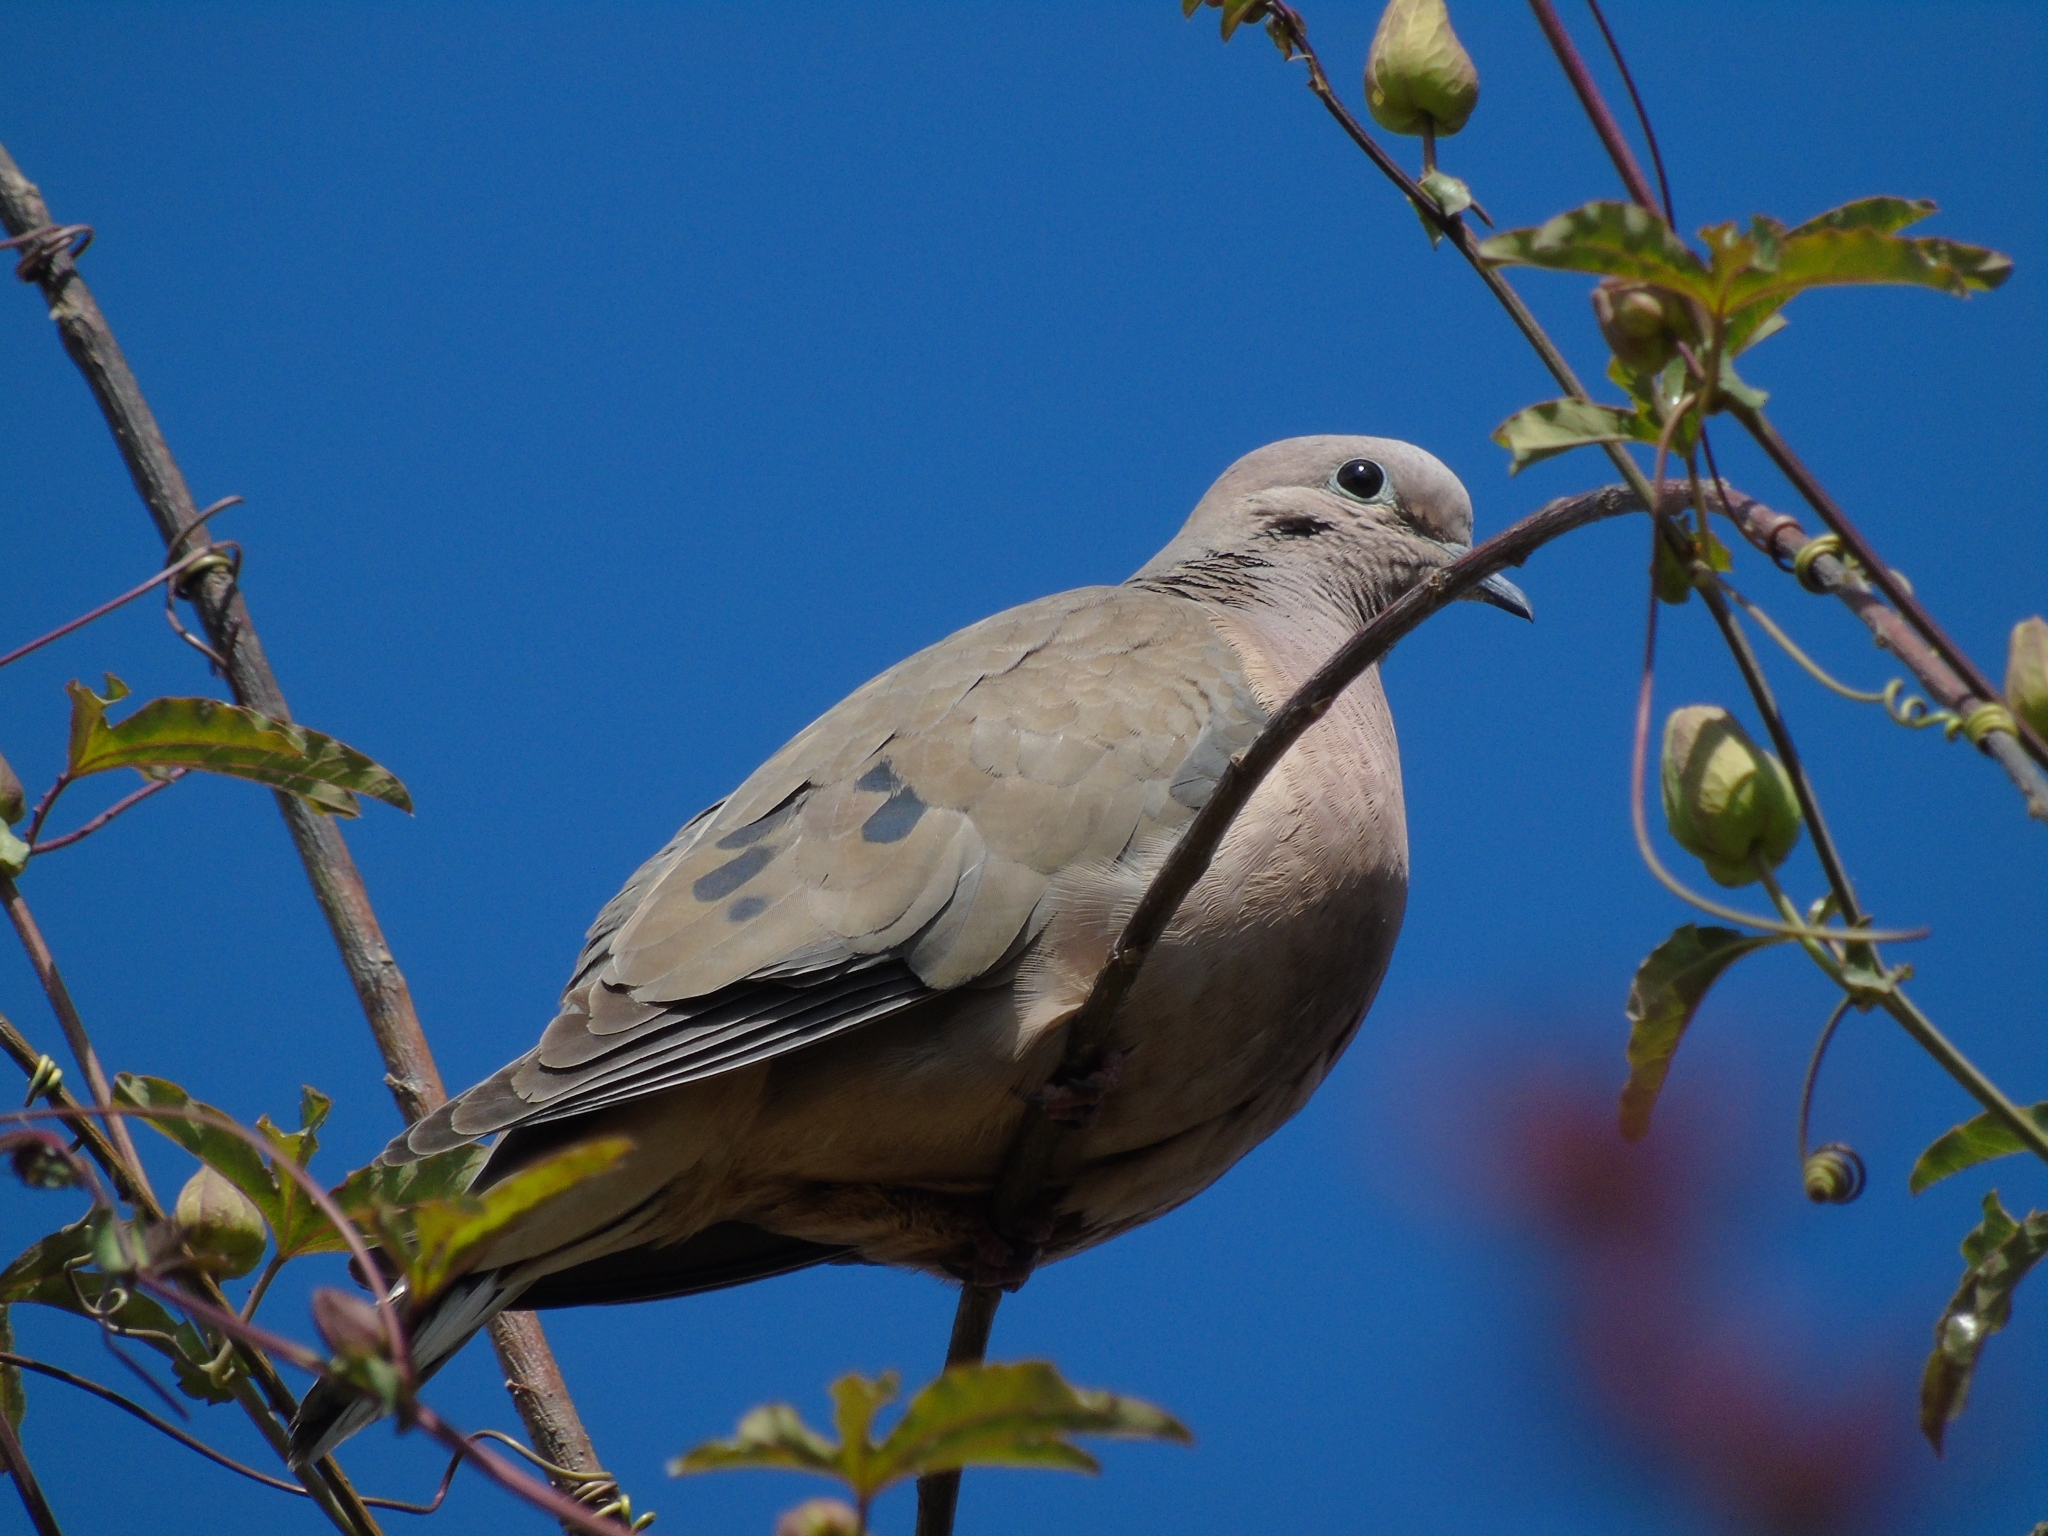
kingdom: Animalia
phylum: Chordata
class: Aves
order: Columbiformes
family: Columbidae
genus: Zenaida
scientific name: Zenaida auriculata
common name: Eared dove
